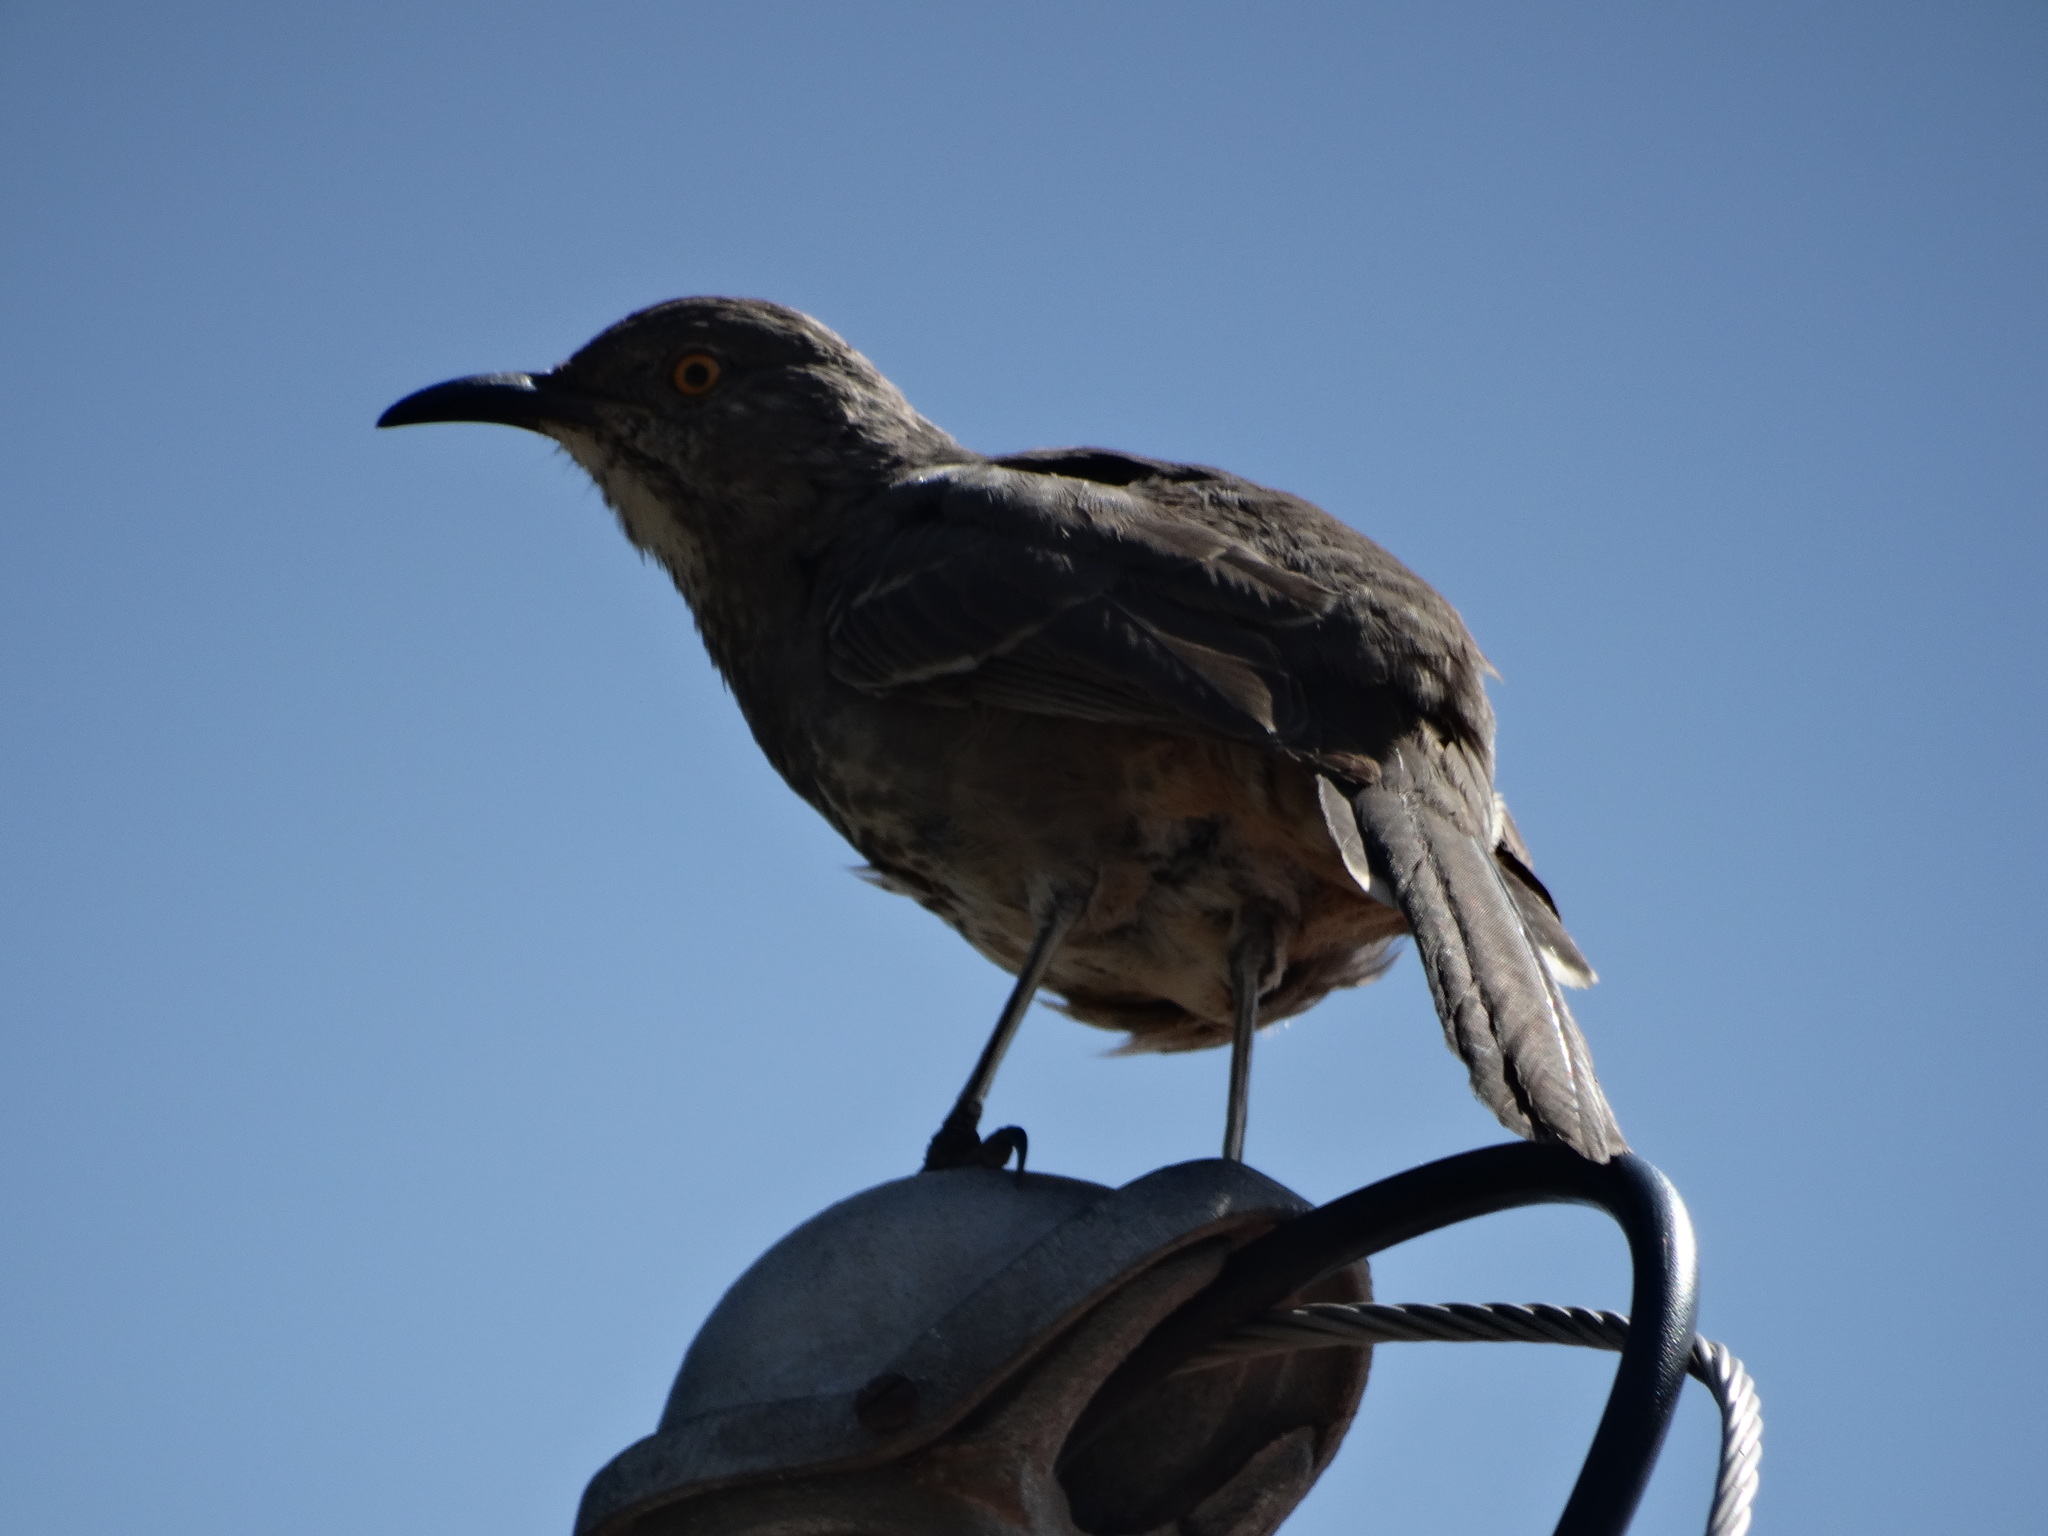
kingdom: Animalia
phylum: Chordata
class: Aves
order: Passeriformes
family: Mimidae
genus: Toxostoma
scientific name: Toxostoma curvirostre
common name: Curve-billed thrasher
